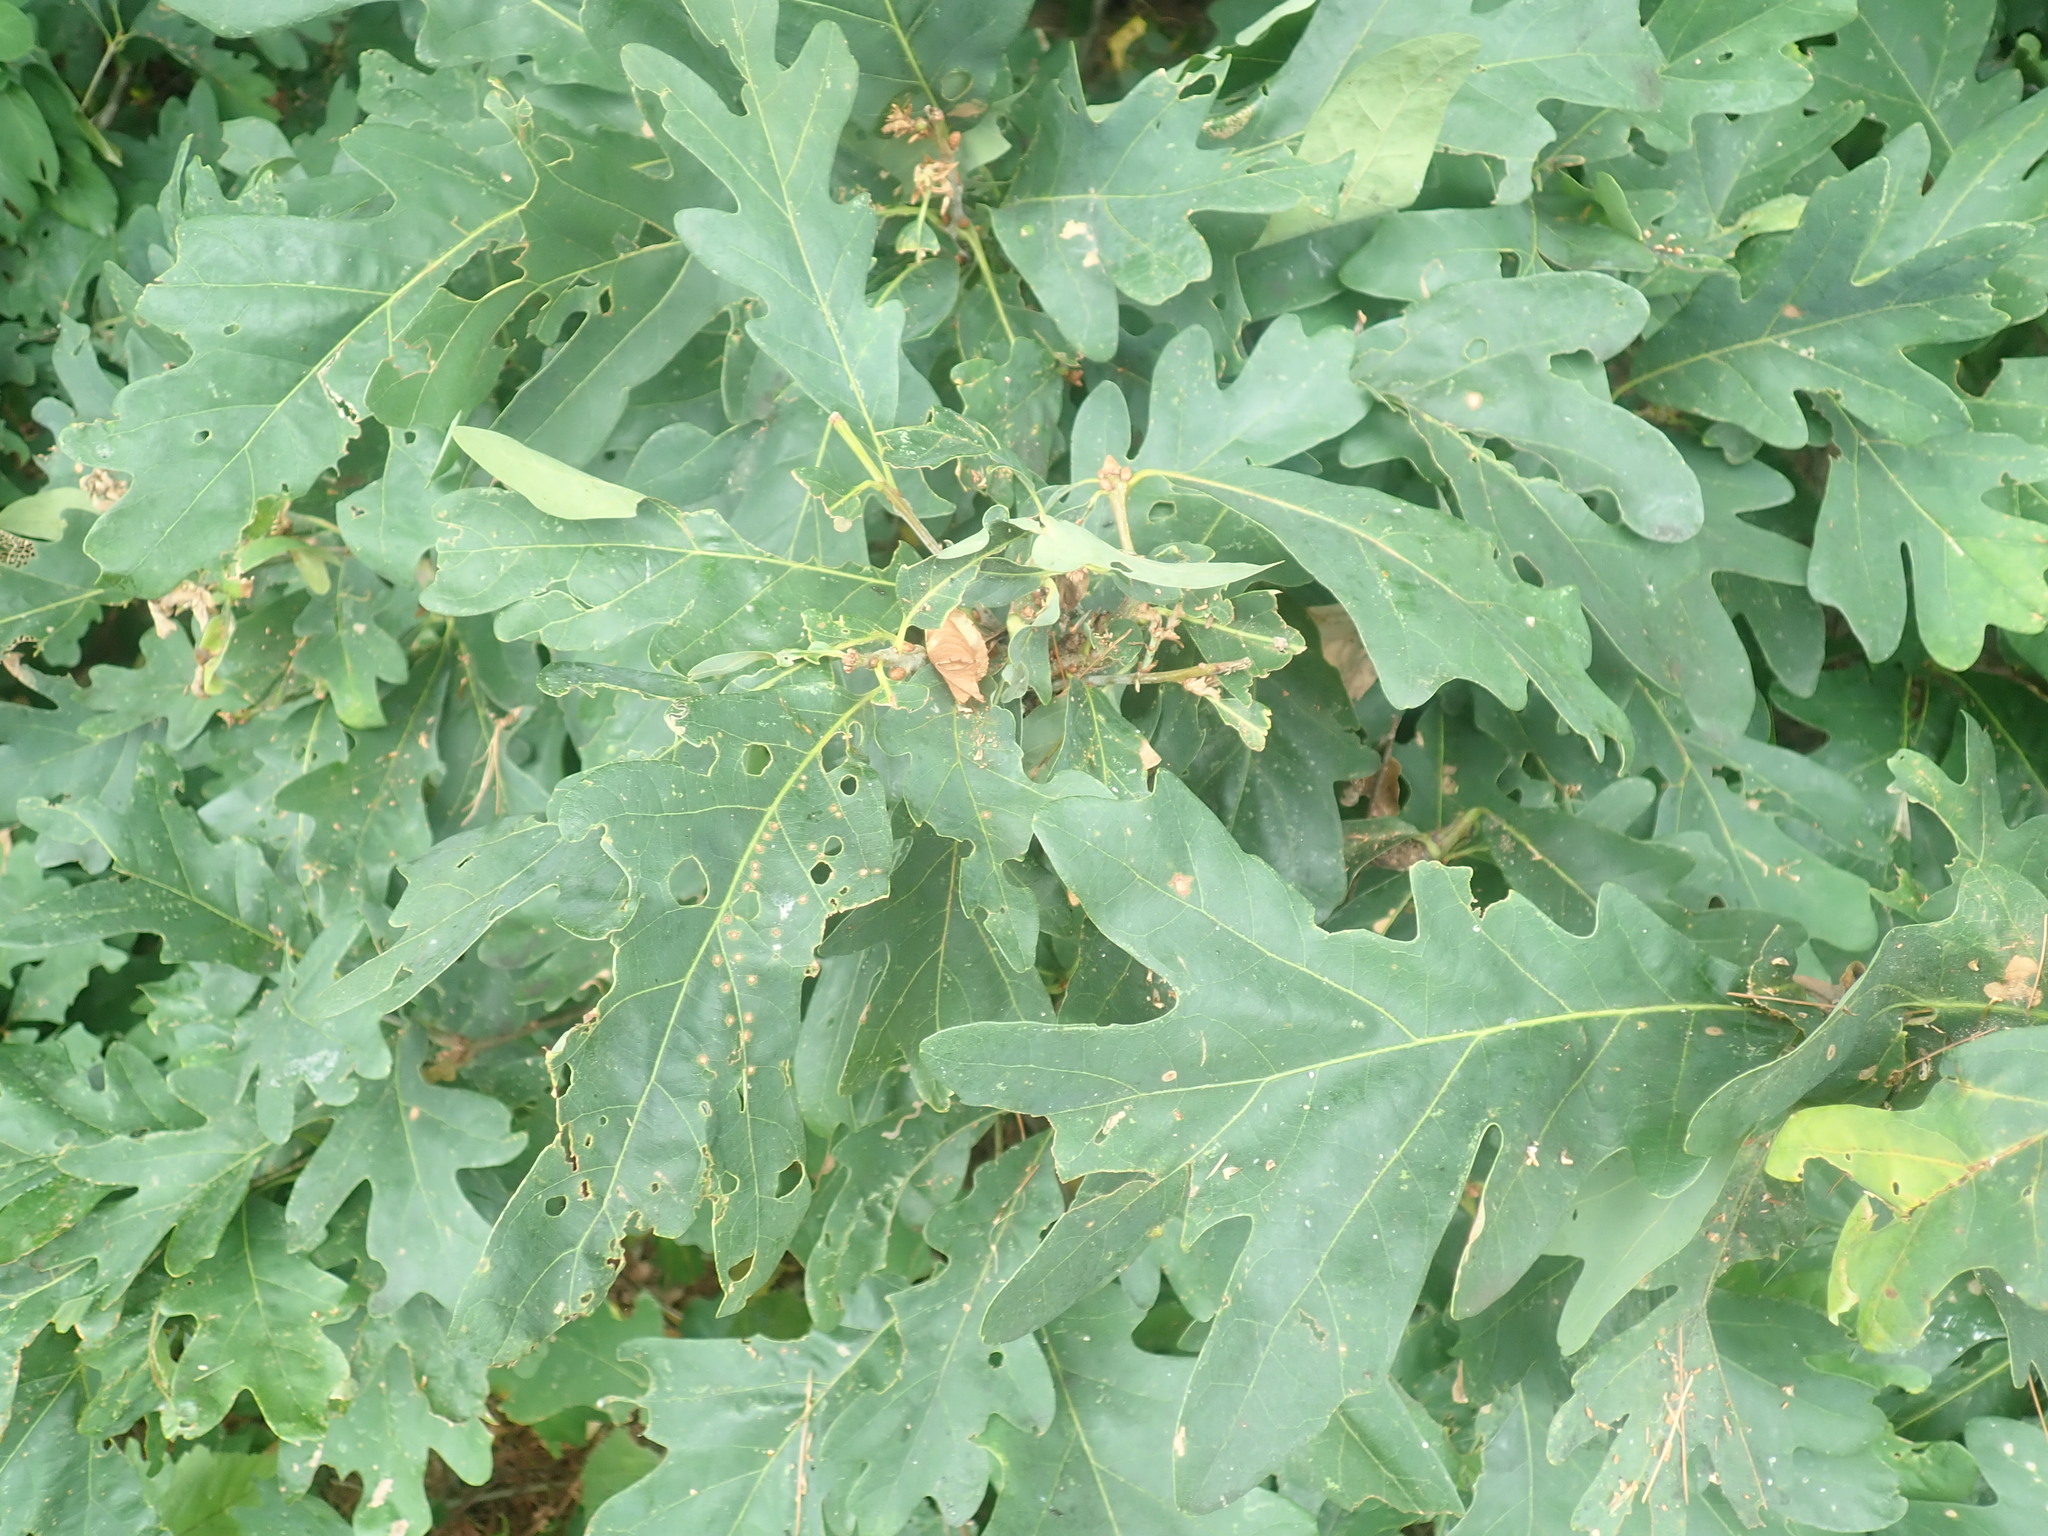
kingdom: Plantae
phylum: Tracheophyta
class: Magnoliopsida
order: Fagales
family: Fagaceae
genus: Quercus
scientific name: Quercus alba
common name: White oak
